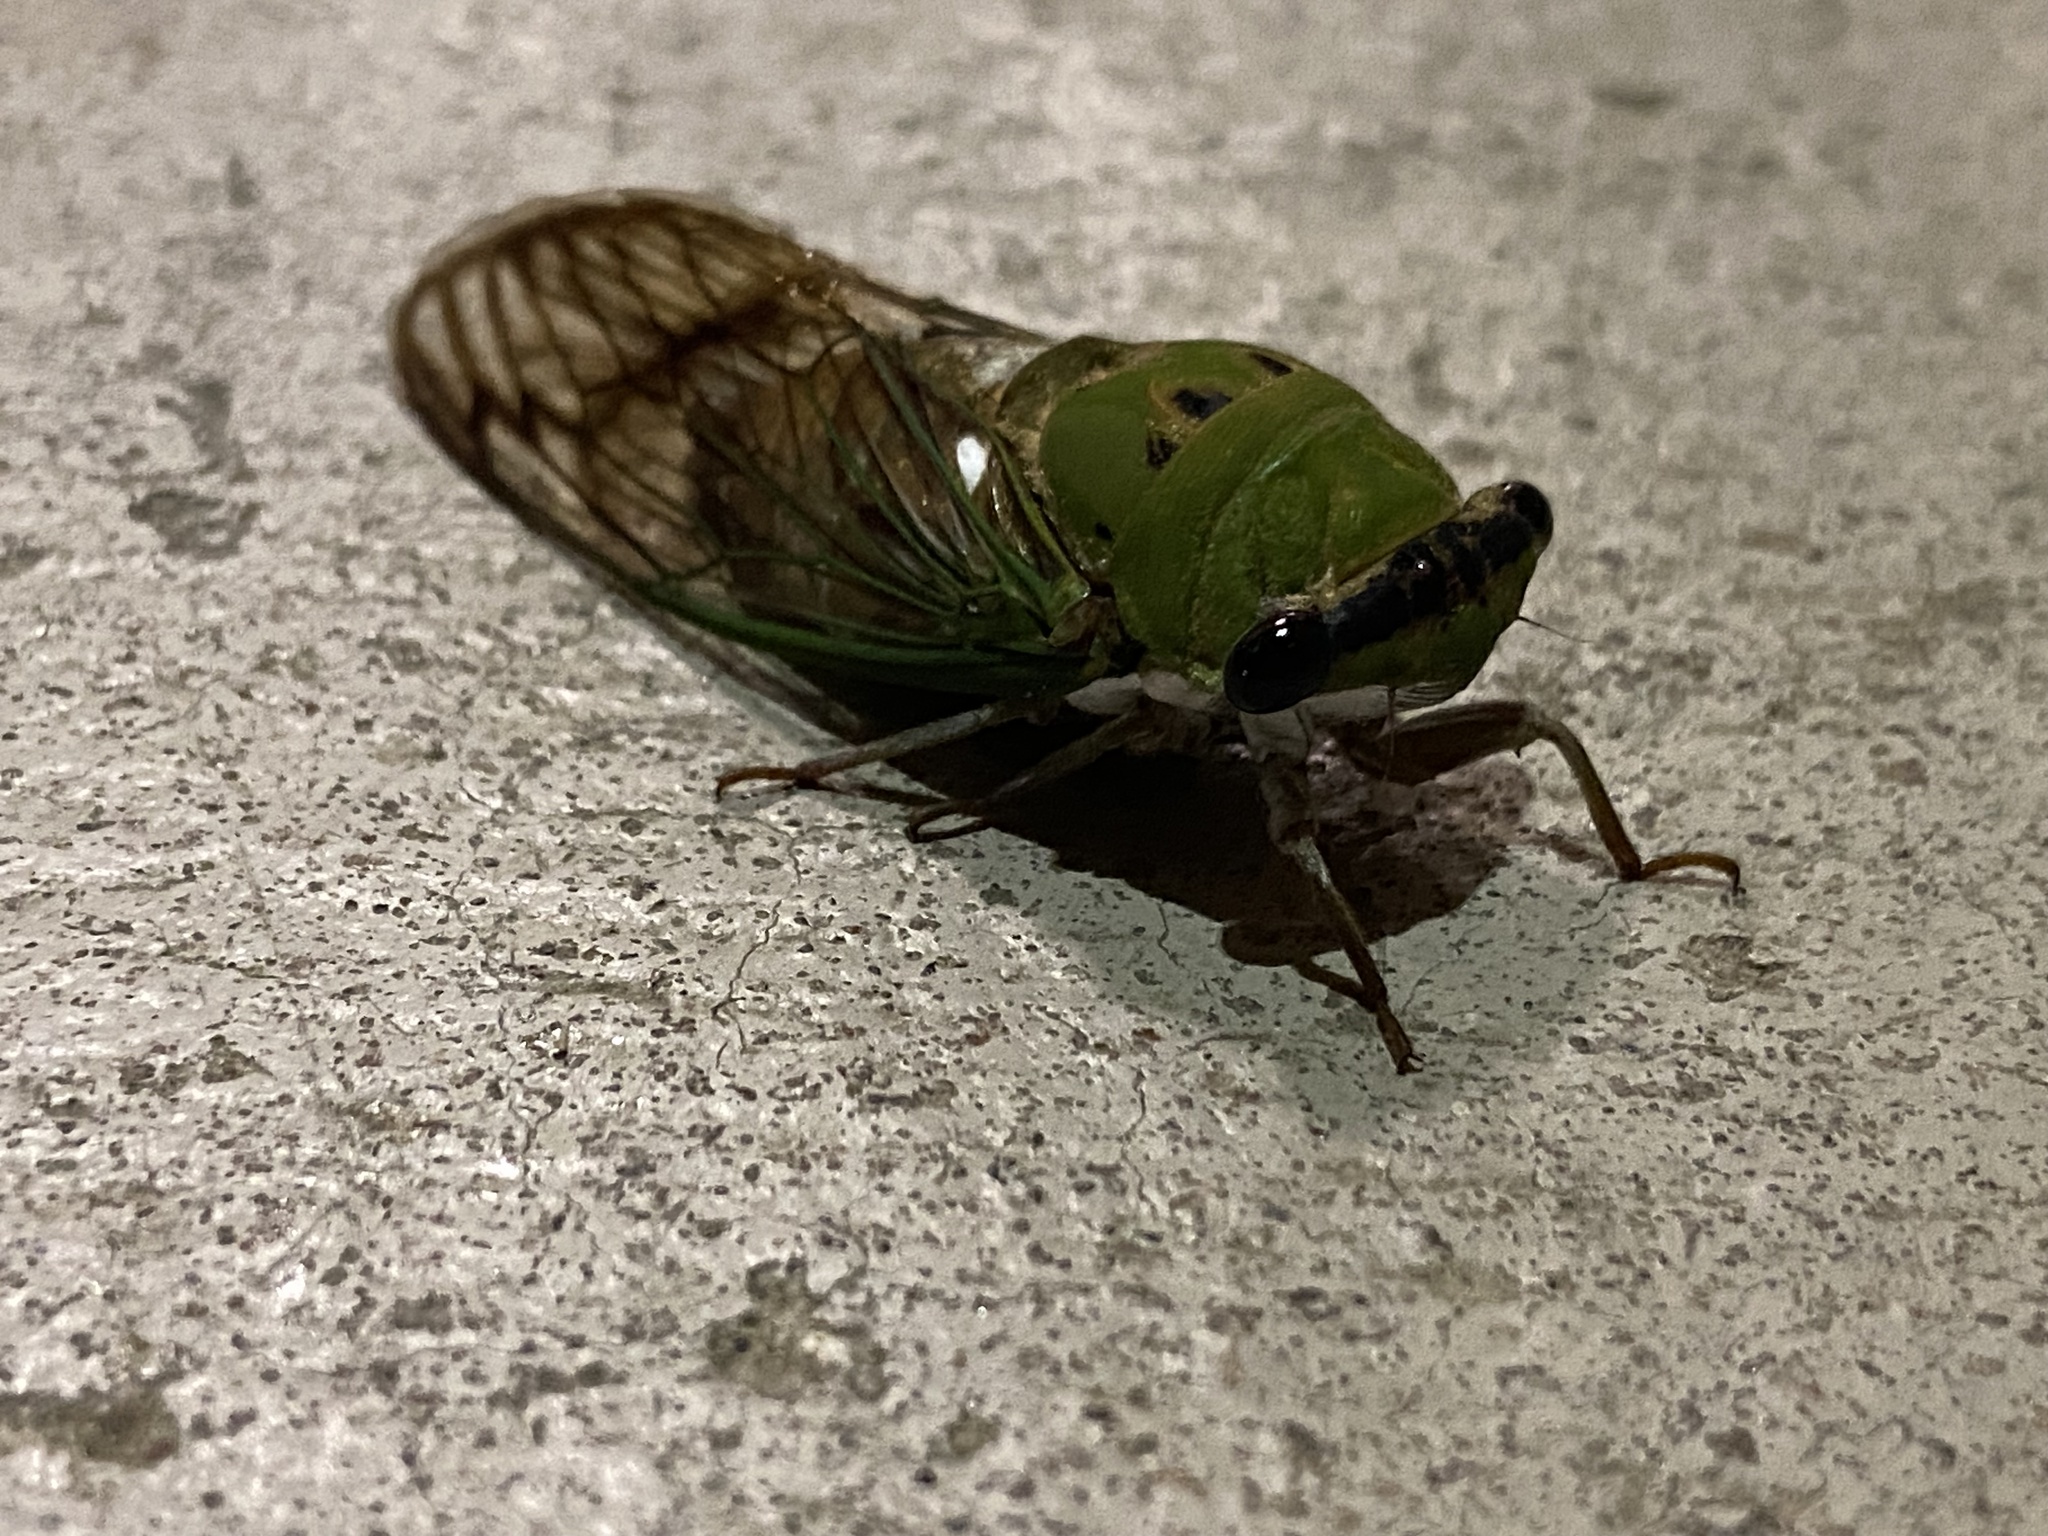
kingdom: Animalia
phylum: Arthropoda
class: Insecta
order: Hemiptera
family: Cicadidae
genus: Neotibicen
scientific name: Neotibicen superbus
